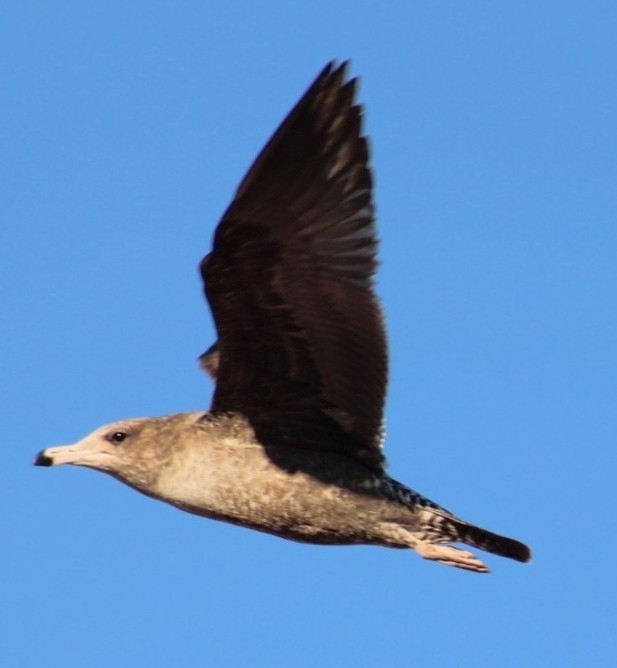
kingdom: Animalia
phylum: Chordata
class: Aves
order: Charadriiformes
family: Laridae
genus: Larus
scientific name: Larus californicus
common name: California gull
